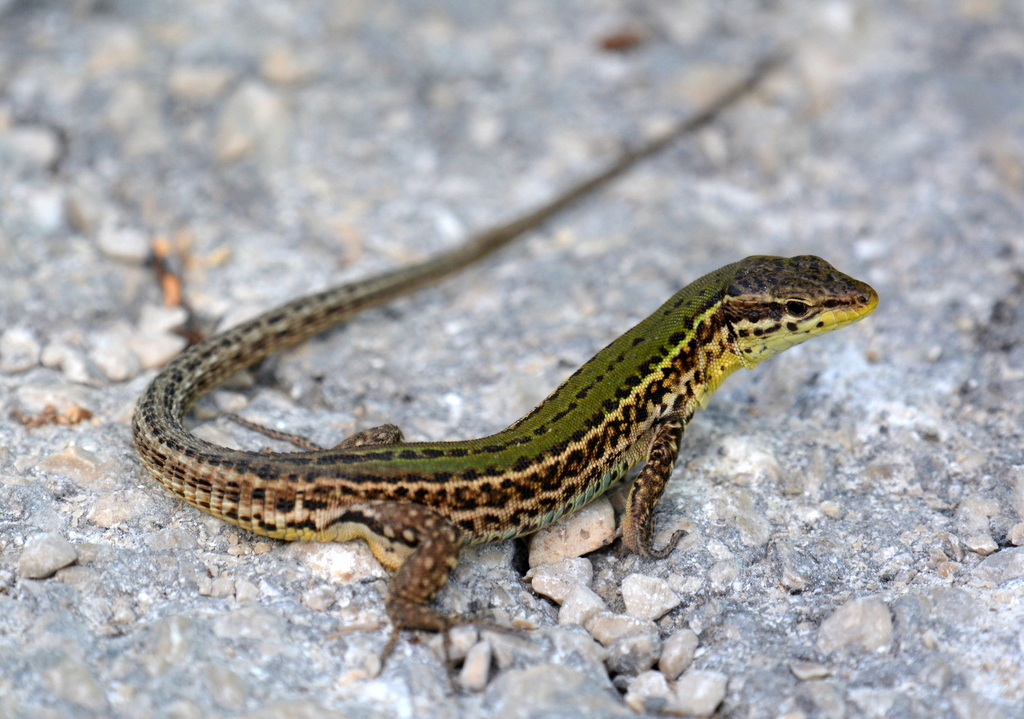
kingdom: Animalia
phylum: Chordata
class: Squamata
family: Lacertidae
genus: Podarcis
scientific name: Podarcis melisellensis
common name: Dalmatian wall lizard
